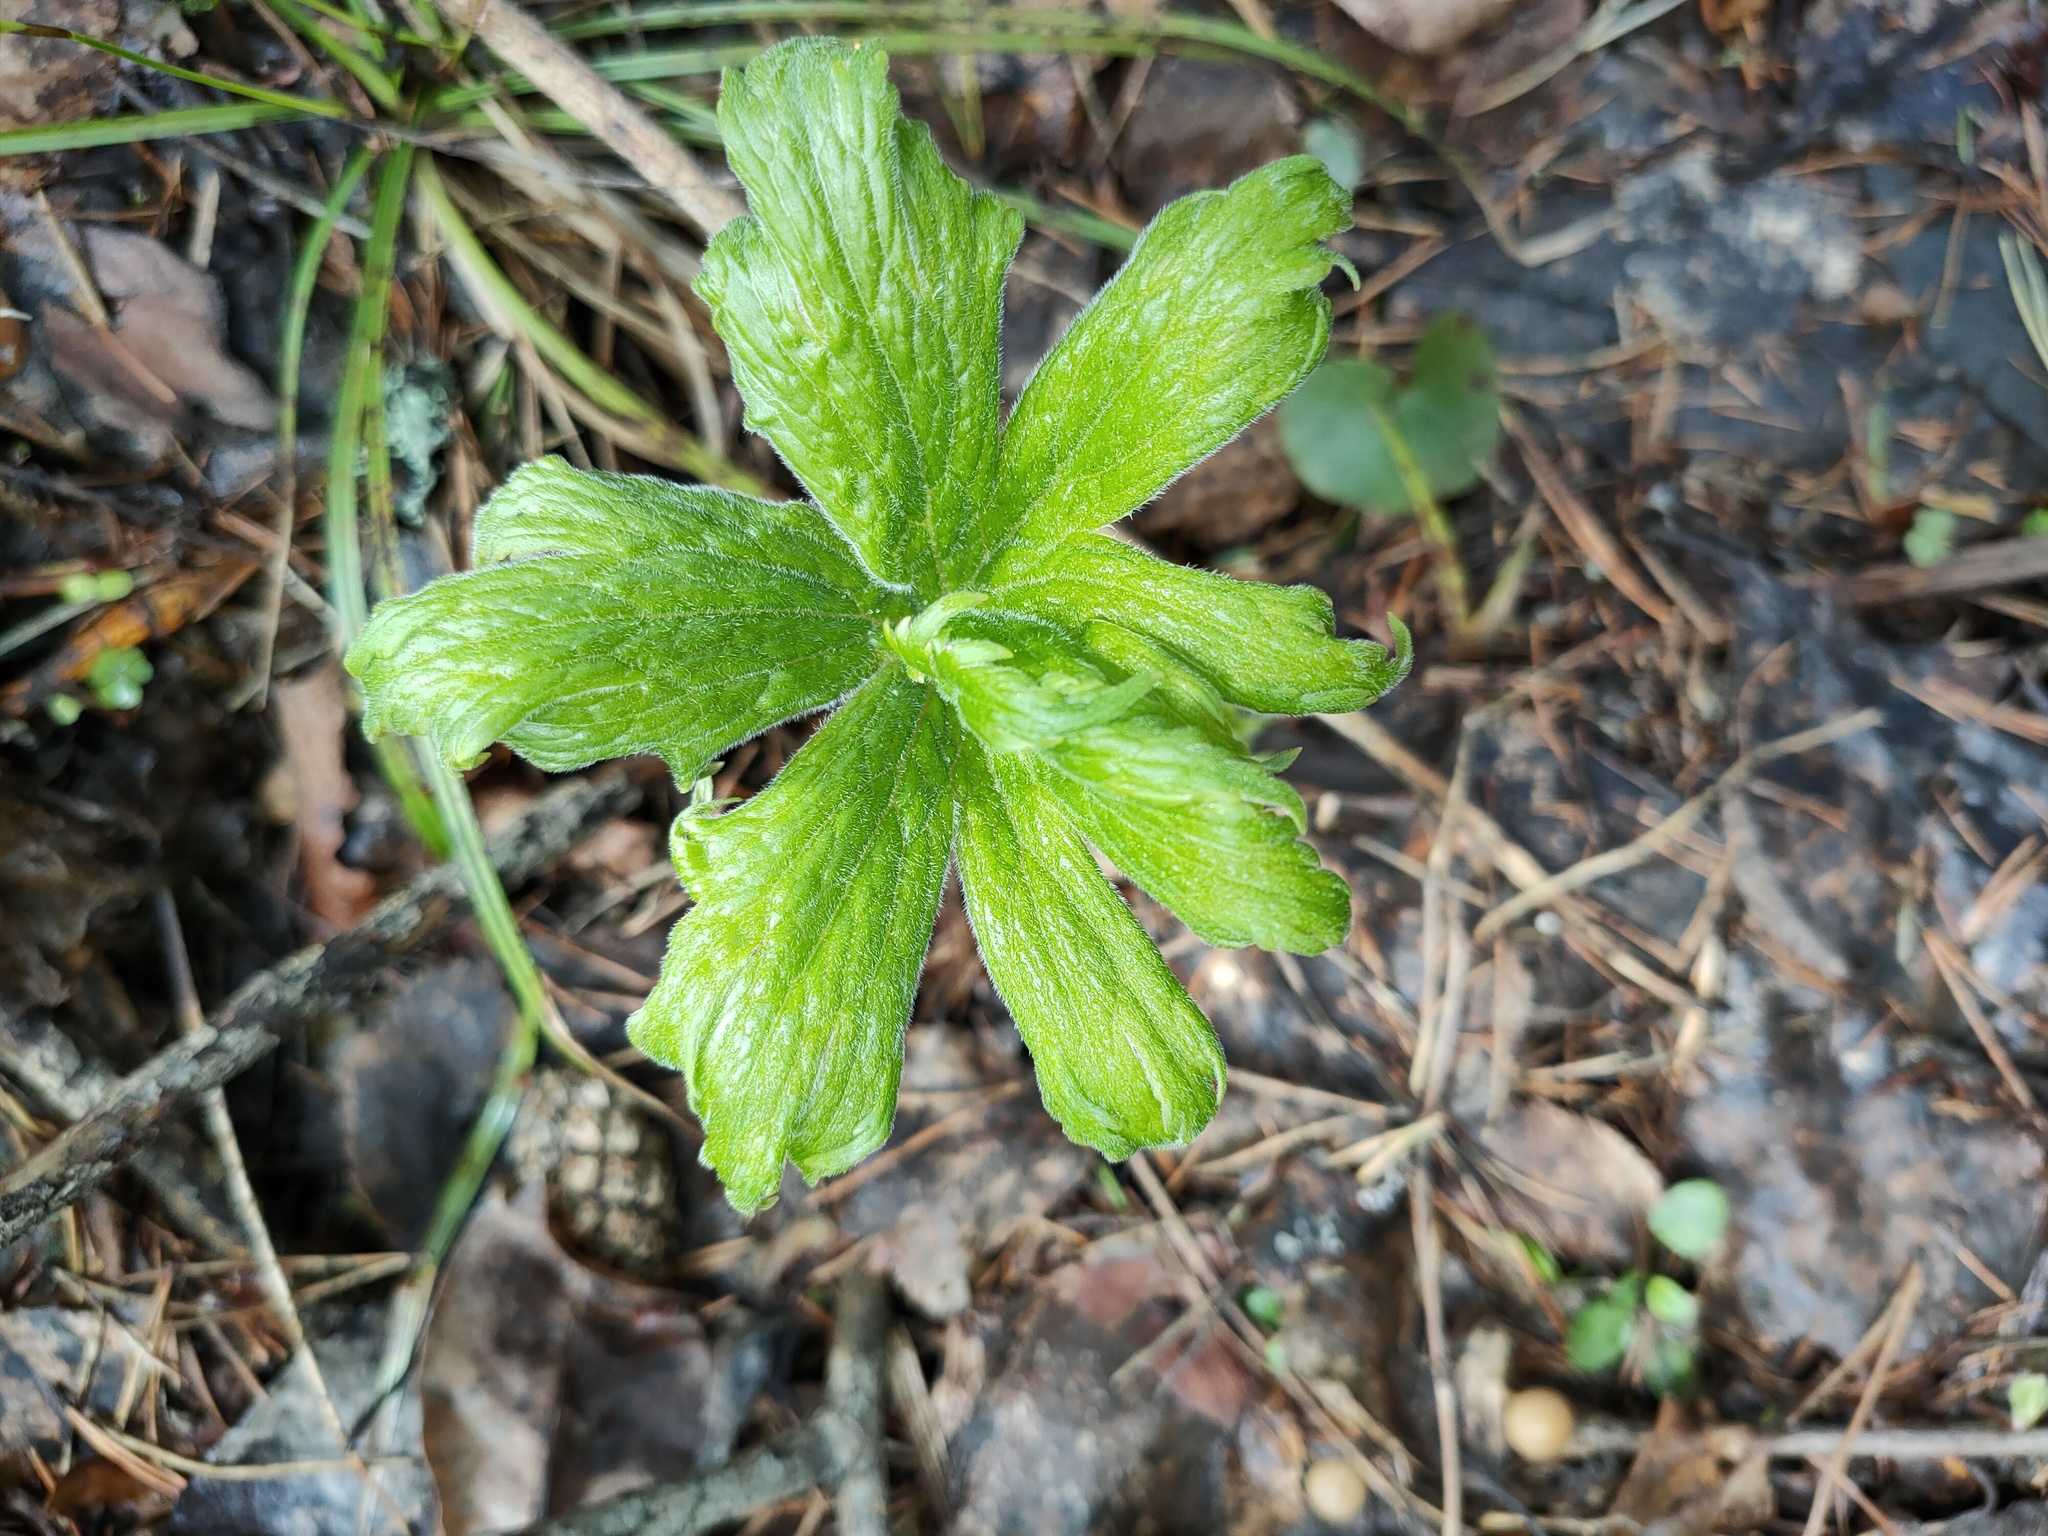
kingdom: Plantae
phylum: Tracheophyta
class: Magnoliopsida
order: Geraniales
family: Geraniaceae
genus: Geranium
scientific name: Geranium sylvaticum
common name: Wood crane's-bill
